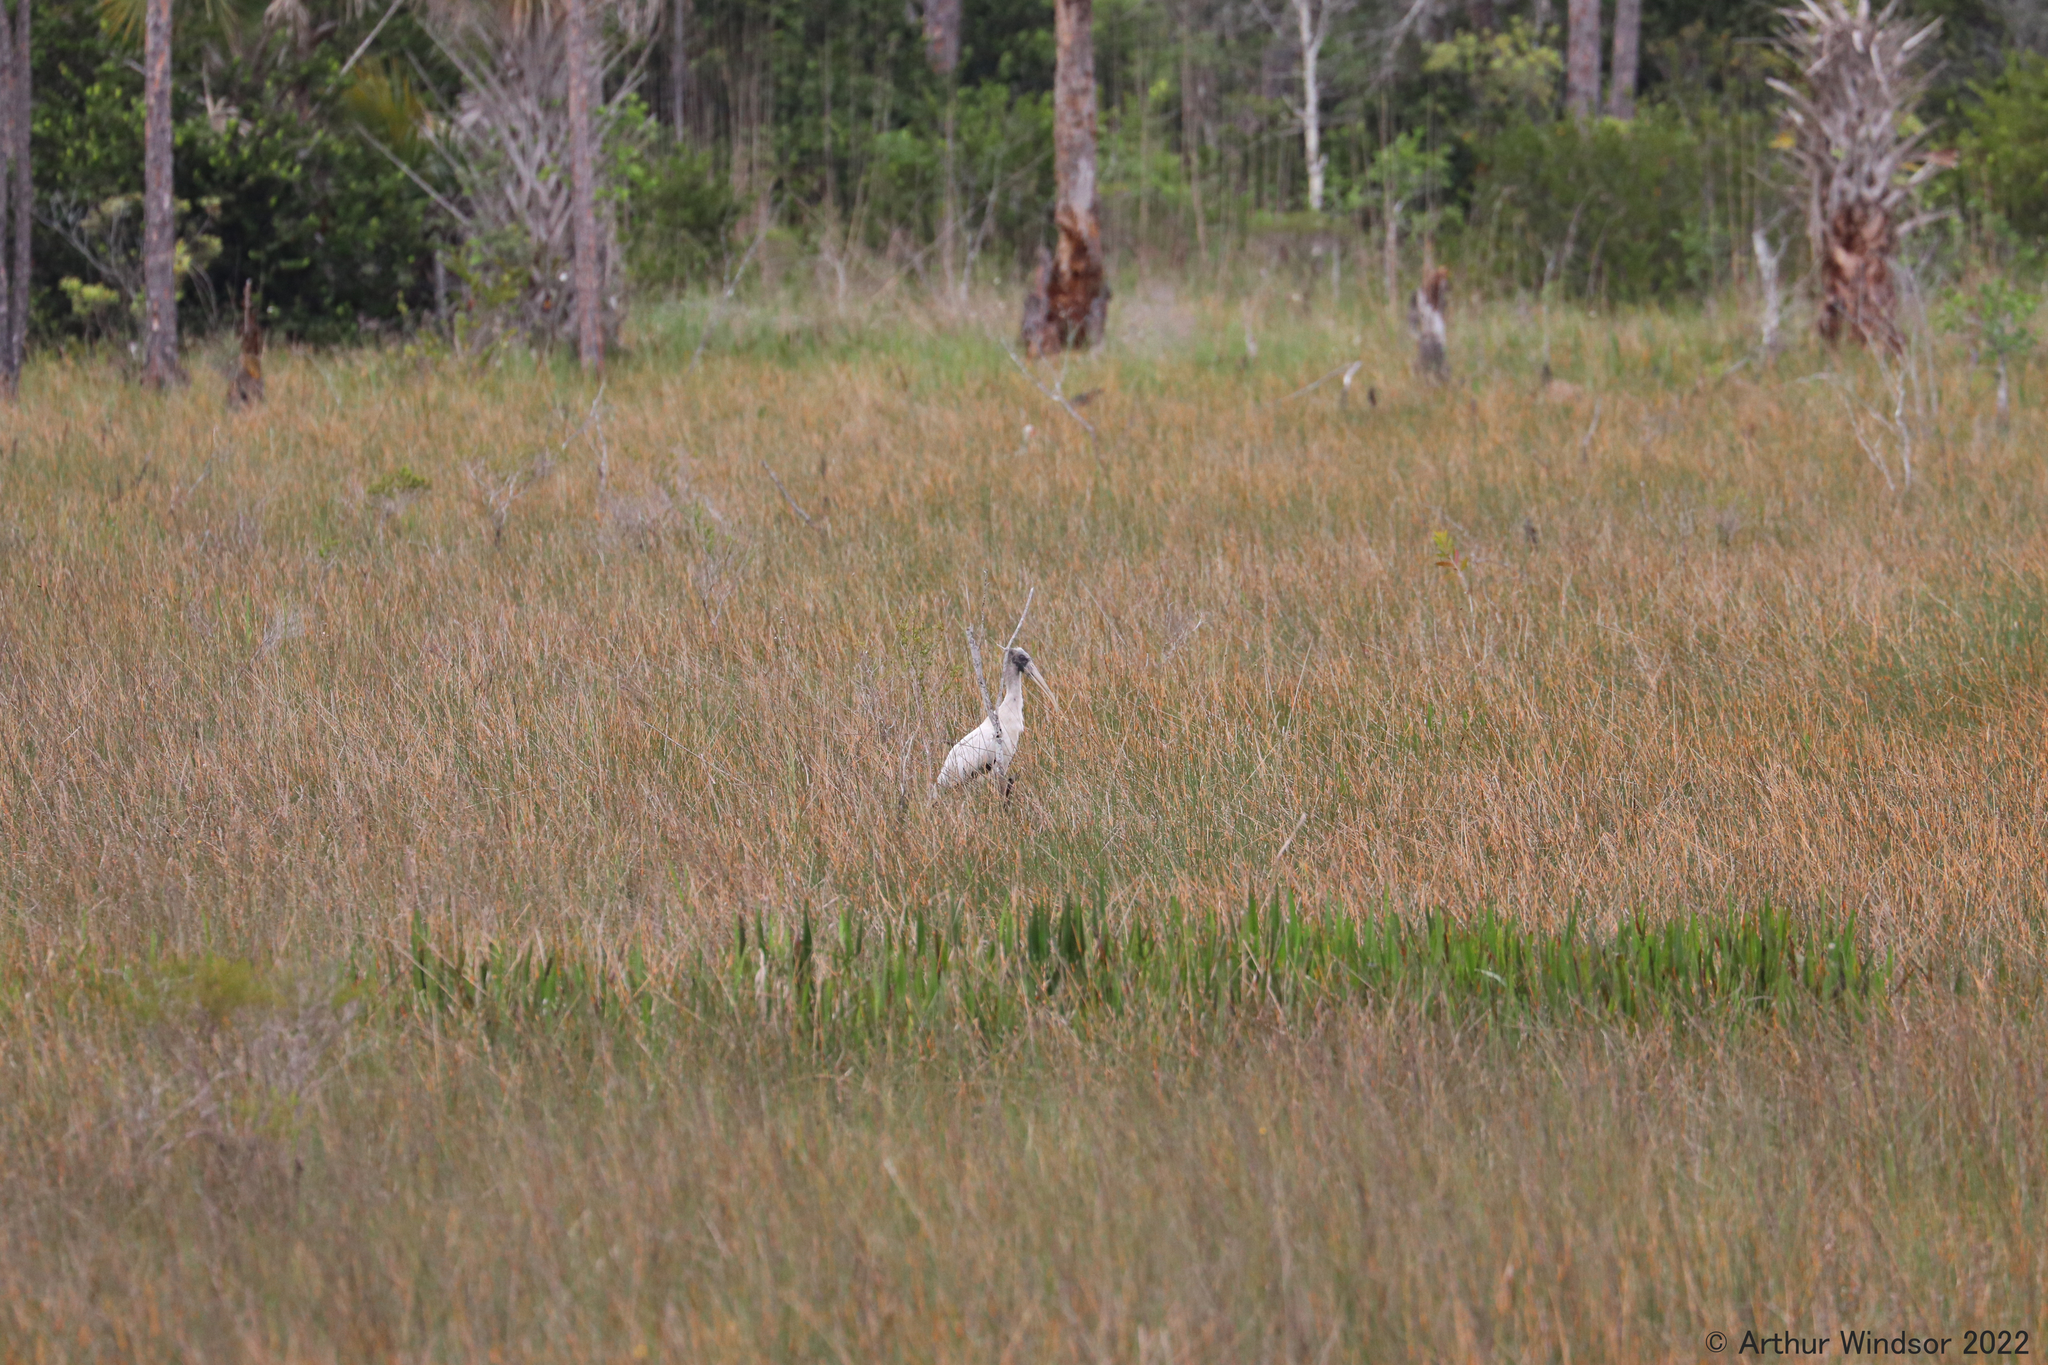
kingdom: Animalia
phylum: Chordata
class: Aves
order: Ciconiiformes
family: Ciconiidae
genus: Mycteria
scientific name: Mycteria americana
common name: Wood stork
